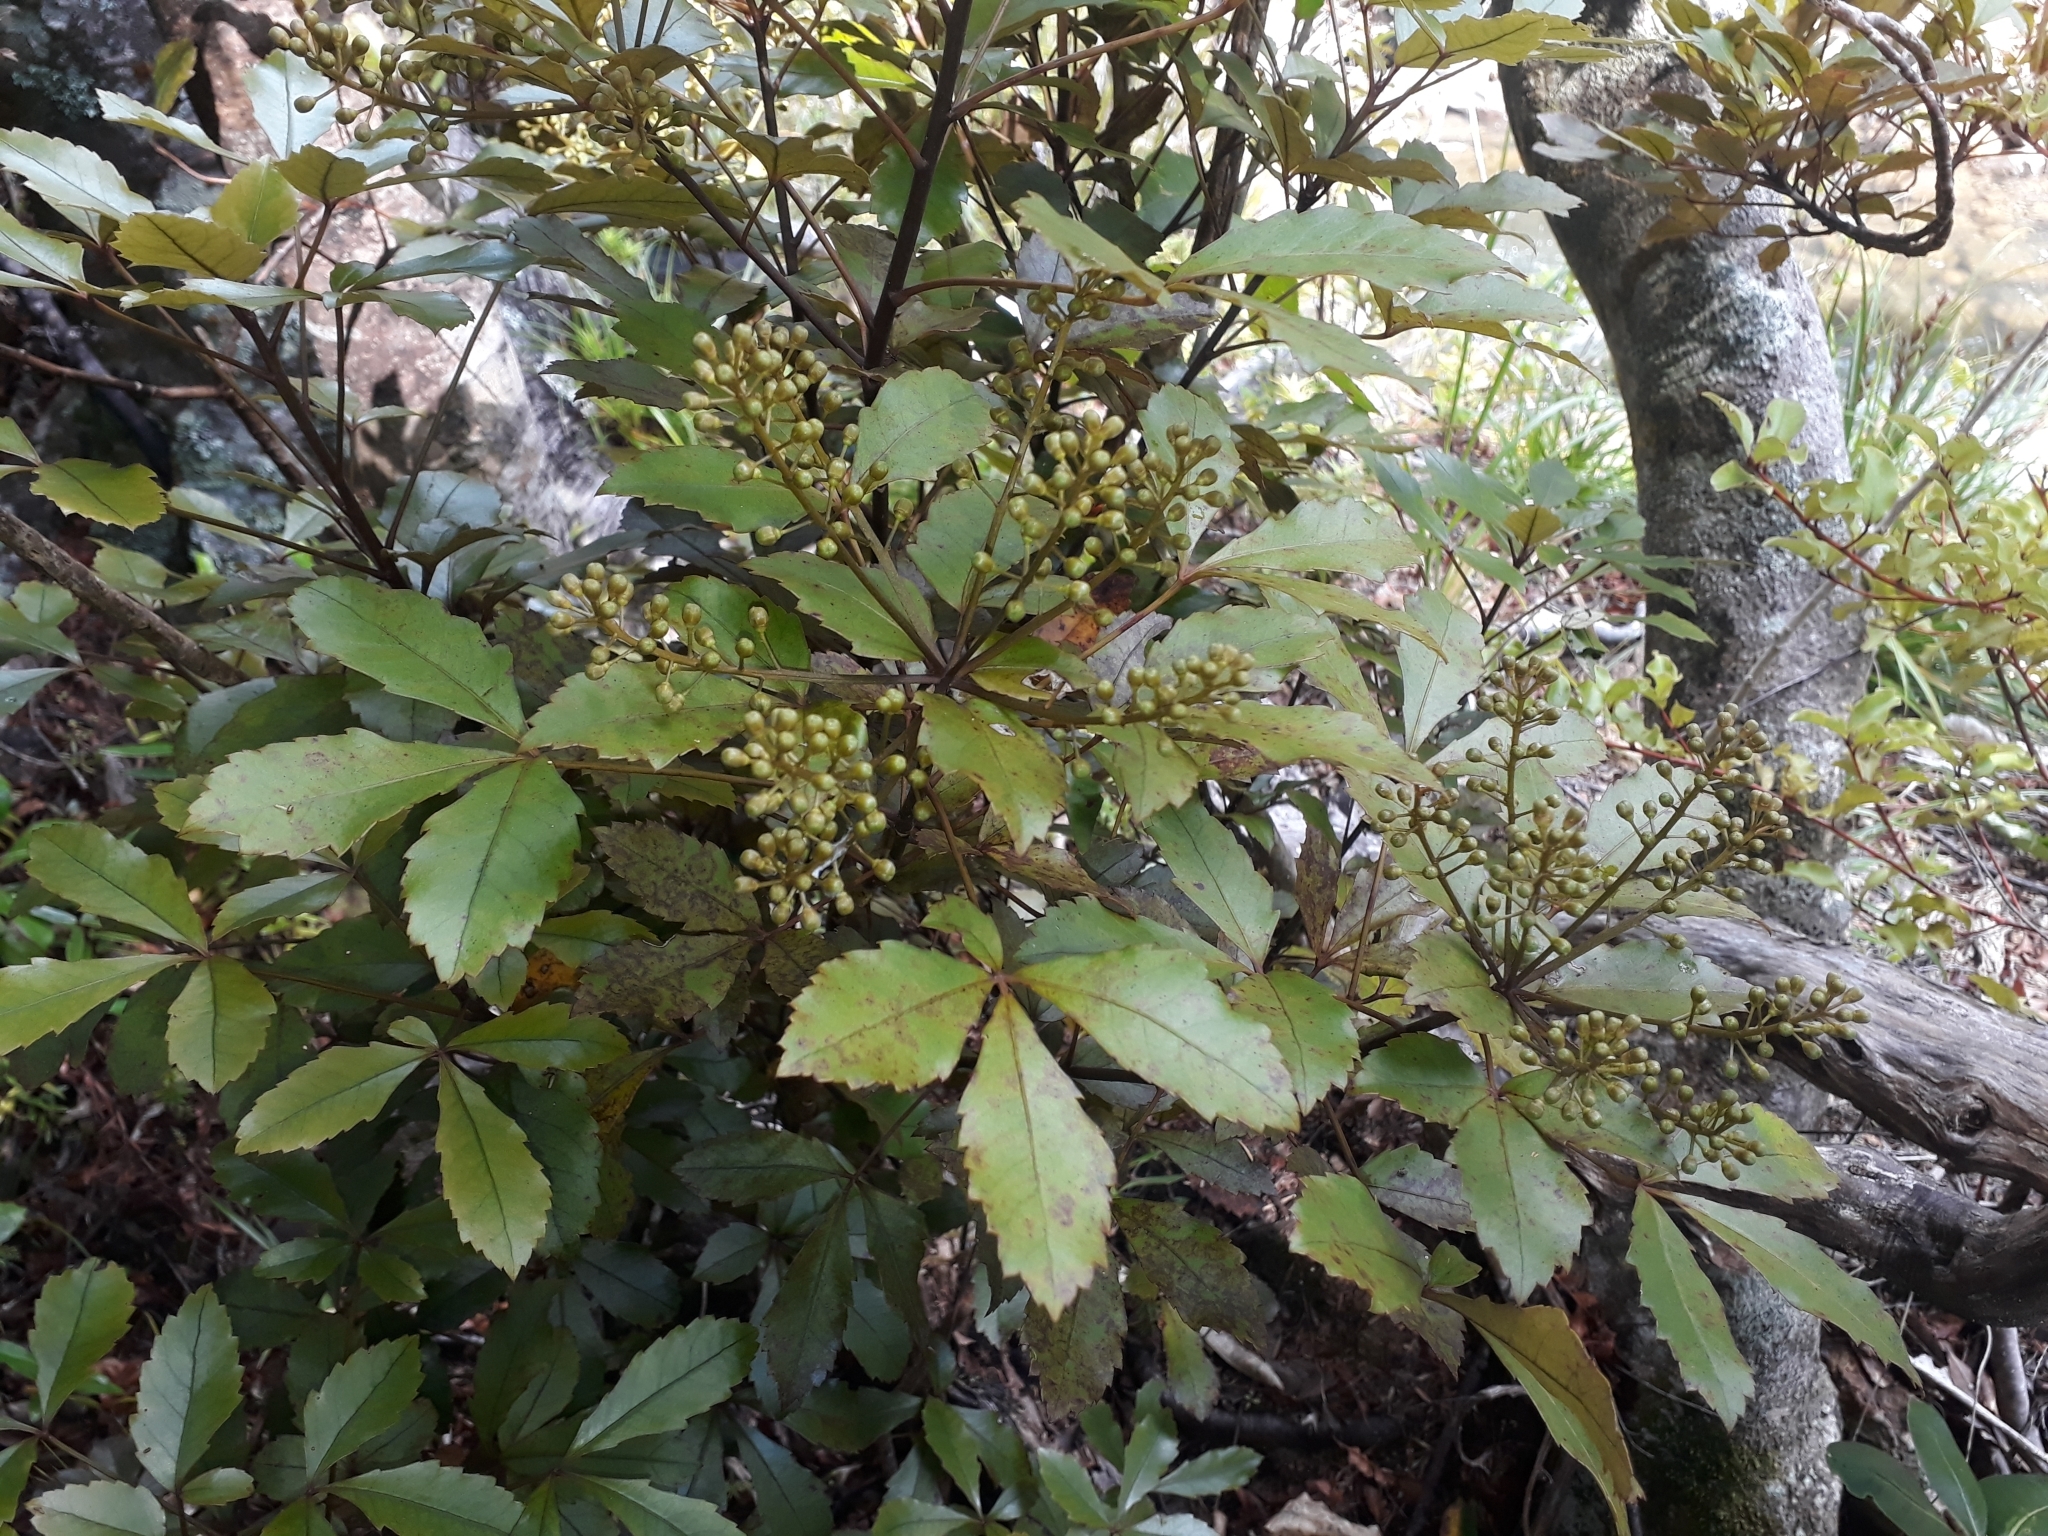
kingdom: Plantae
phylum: Tracheophyta
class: Magnoliopsida
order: Apiales
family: Araliaceae
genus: Pseudopanax
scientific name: Pseudopanax discolor
